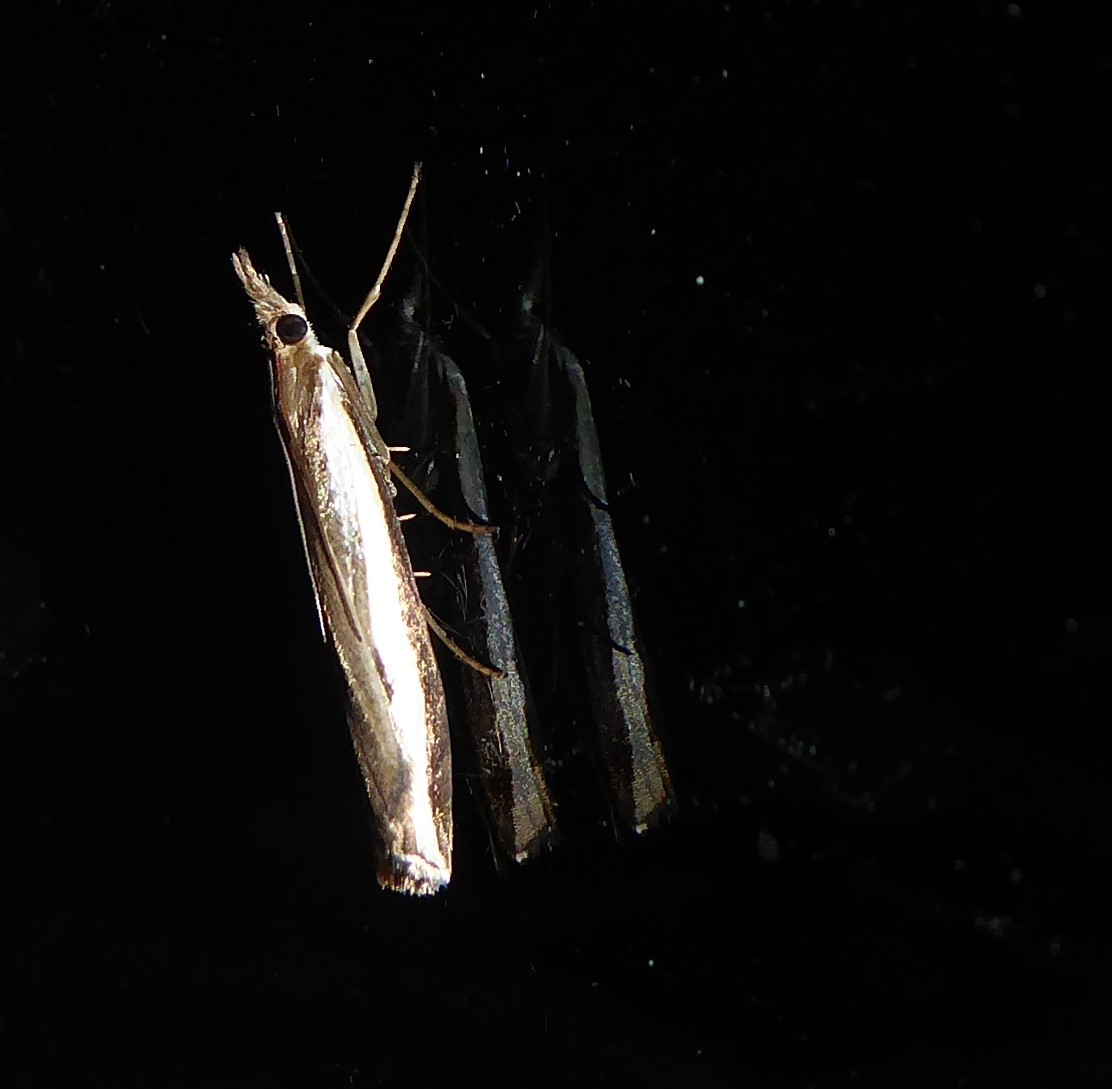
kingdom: Animalia
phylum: Arthropoda
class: Insecta
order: Lepidoptera
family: Crambidae
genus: Orocrambus
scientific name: Orocrambus flexuosellus
